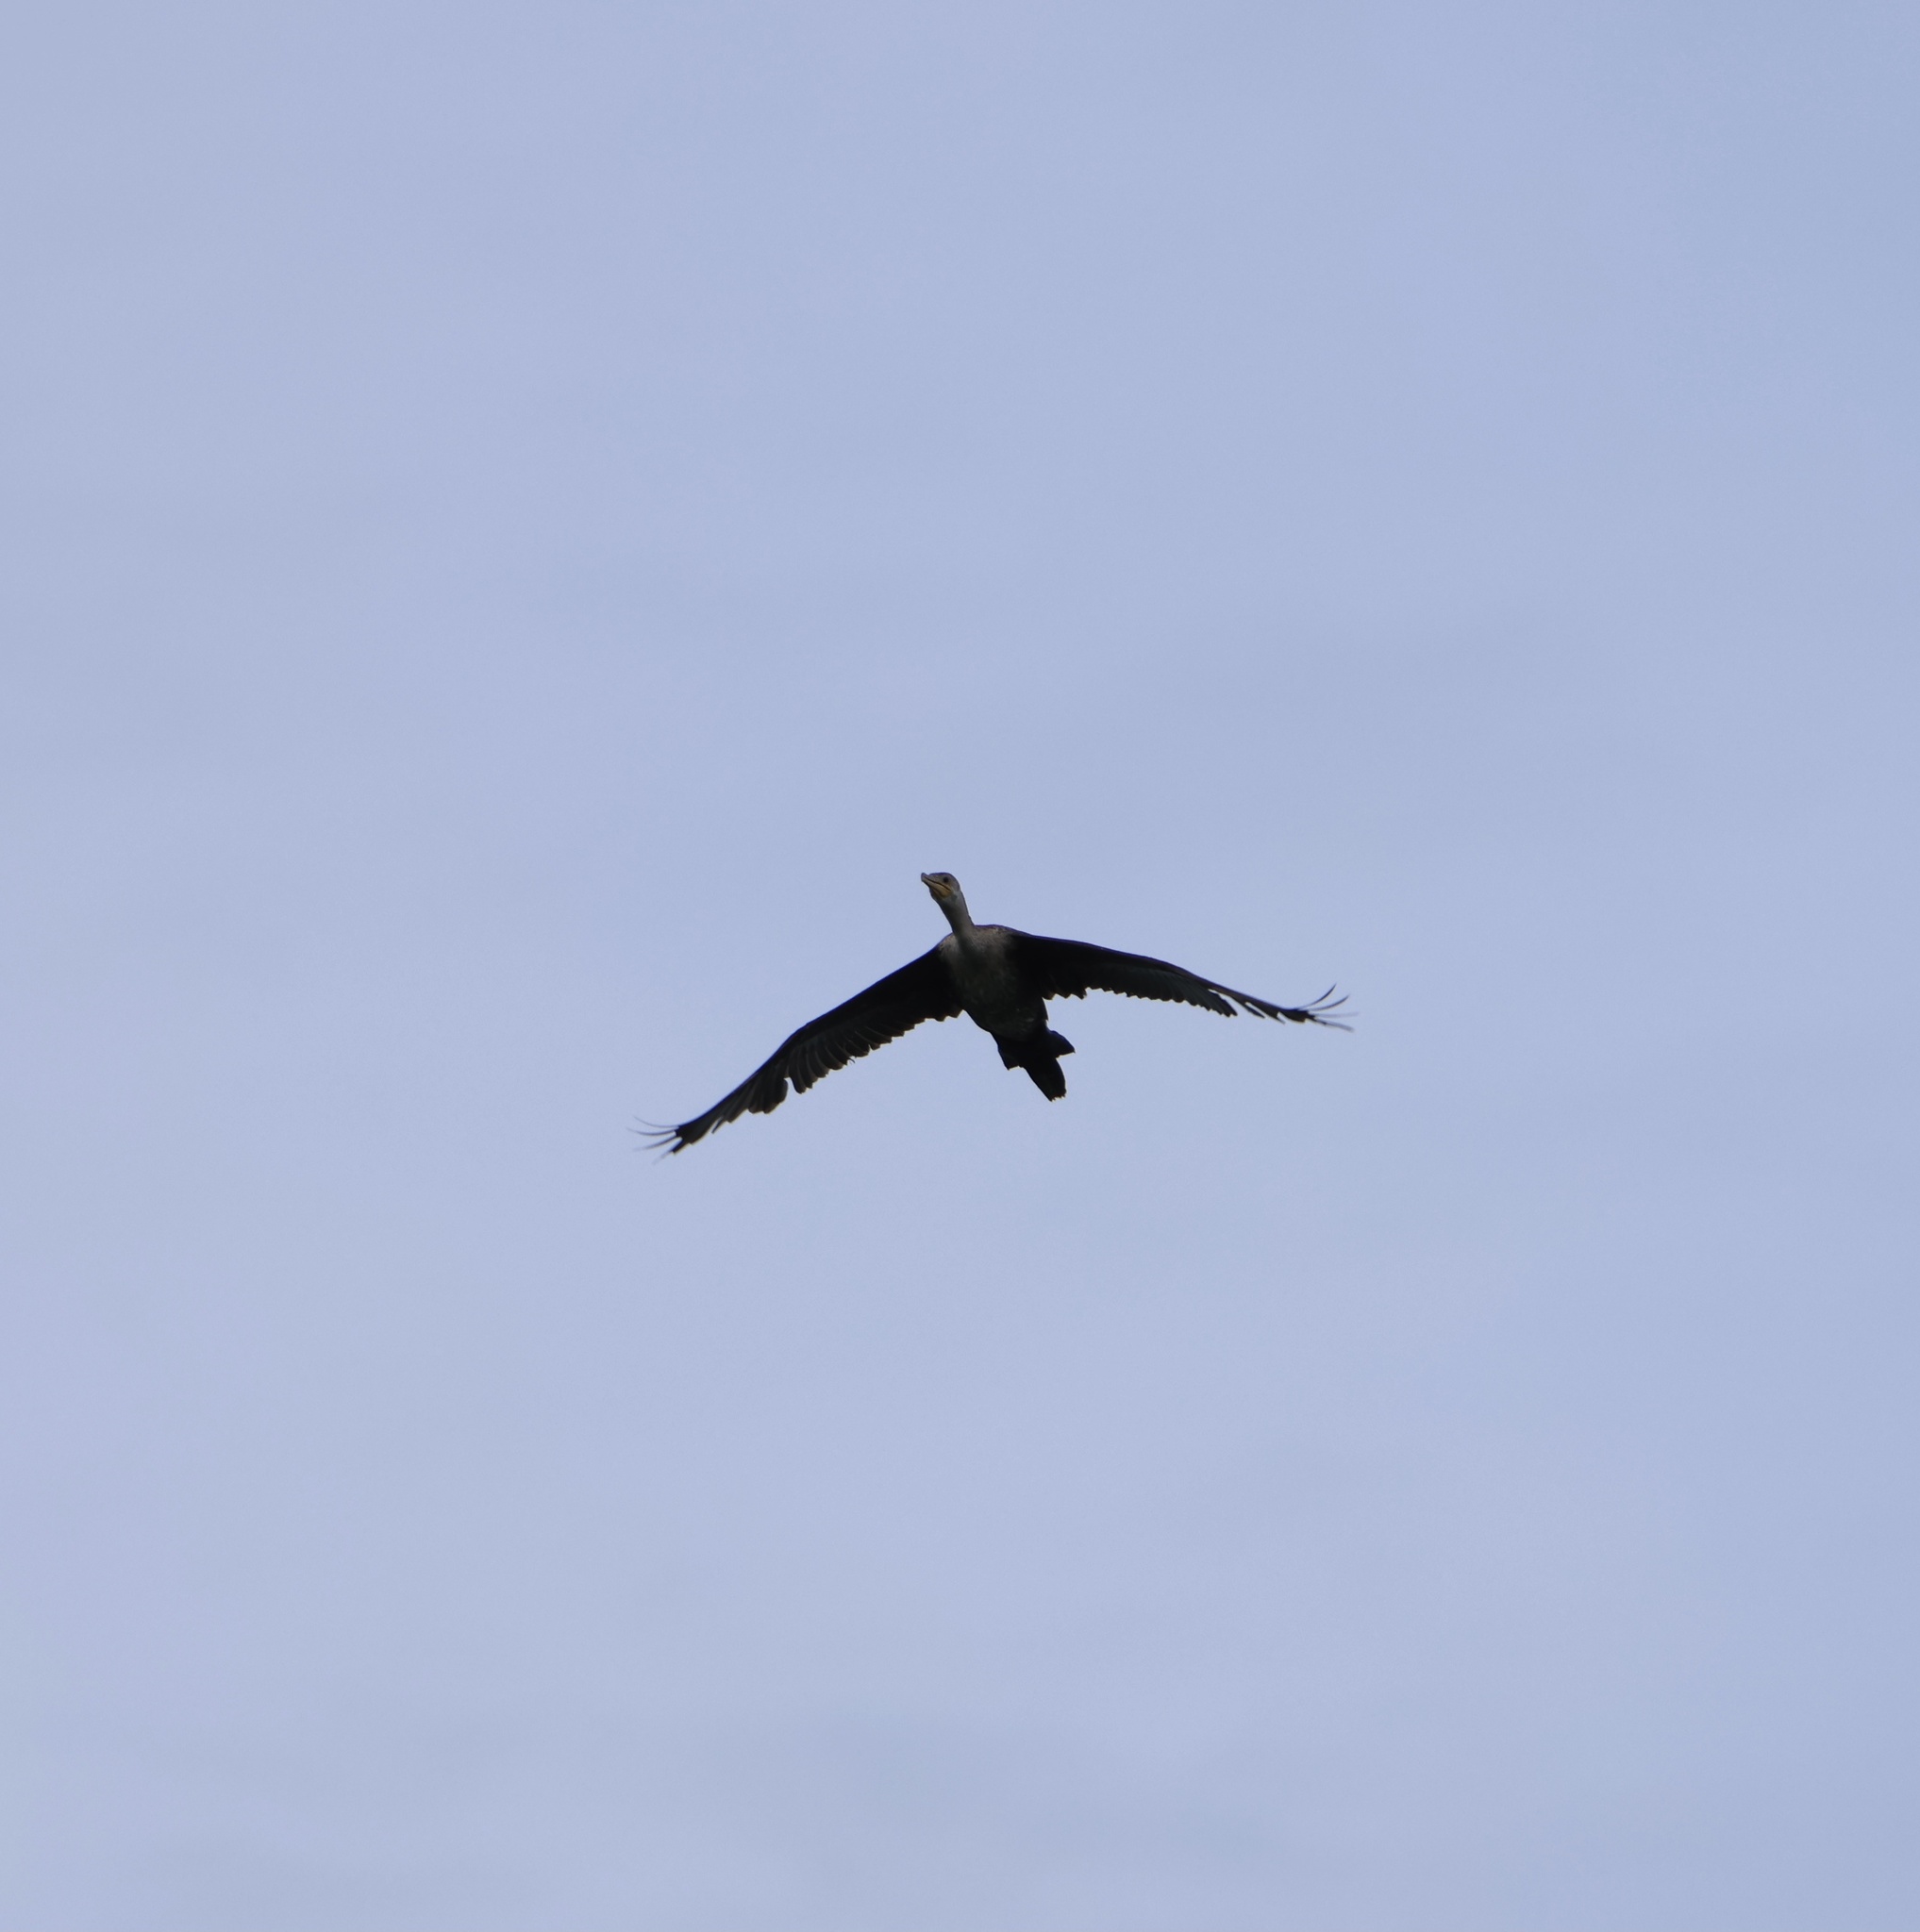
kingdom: Animalia
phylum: Chordata
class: Aves
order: Suliformes
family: Phalacrocoracidae
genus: Phalacrocorax
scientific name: Phalacrocorax brasilianus
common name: Neotropic cormorant
